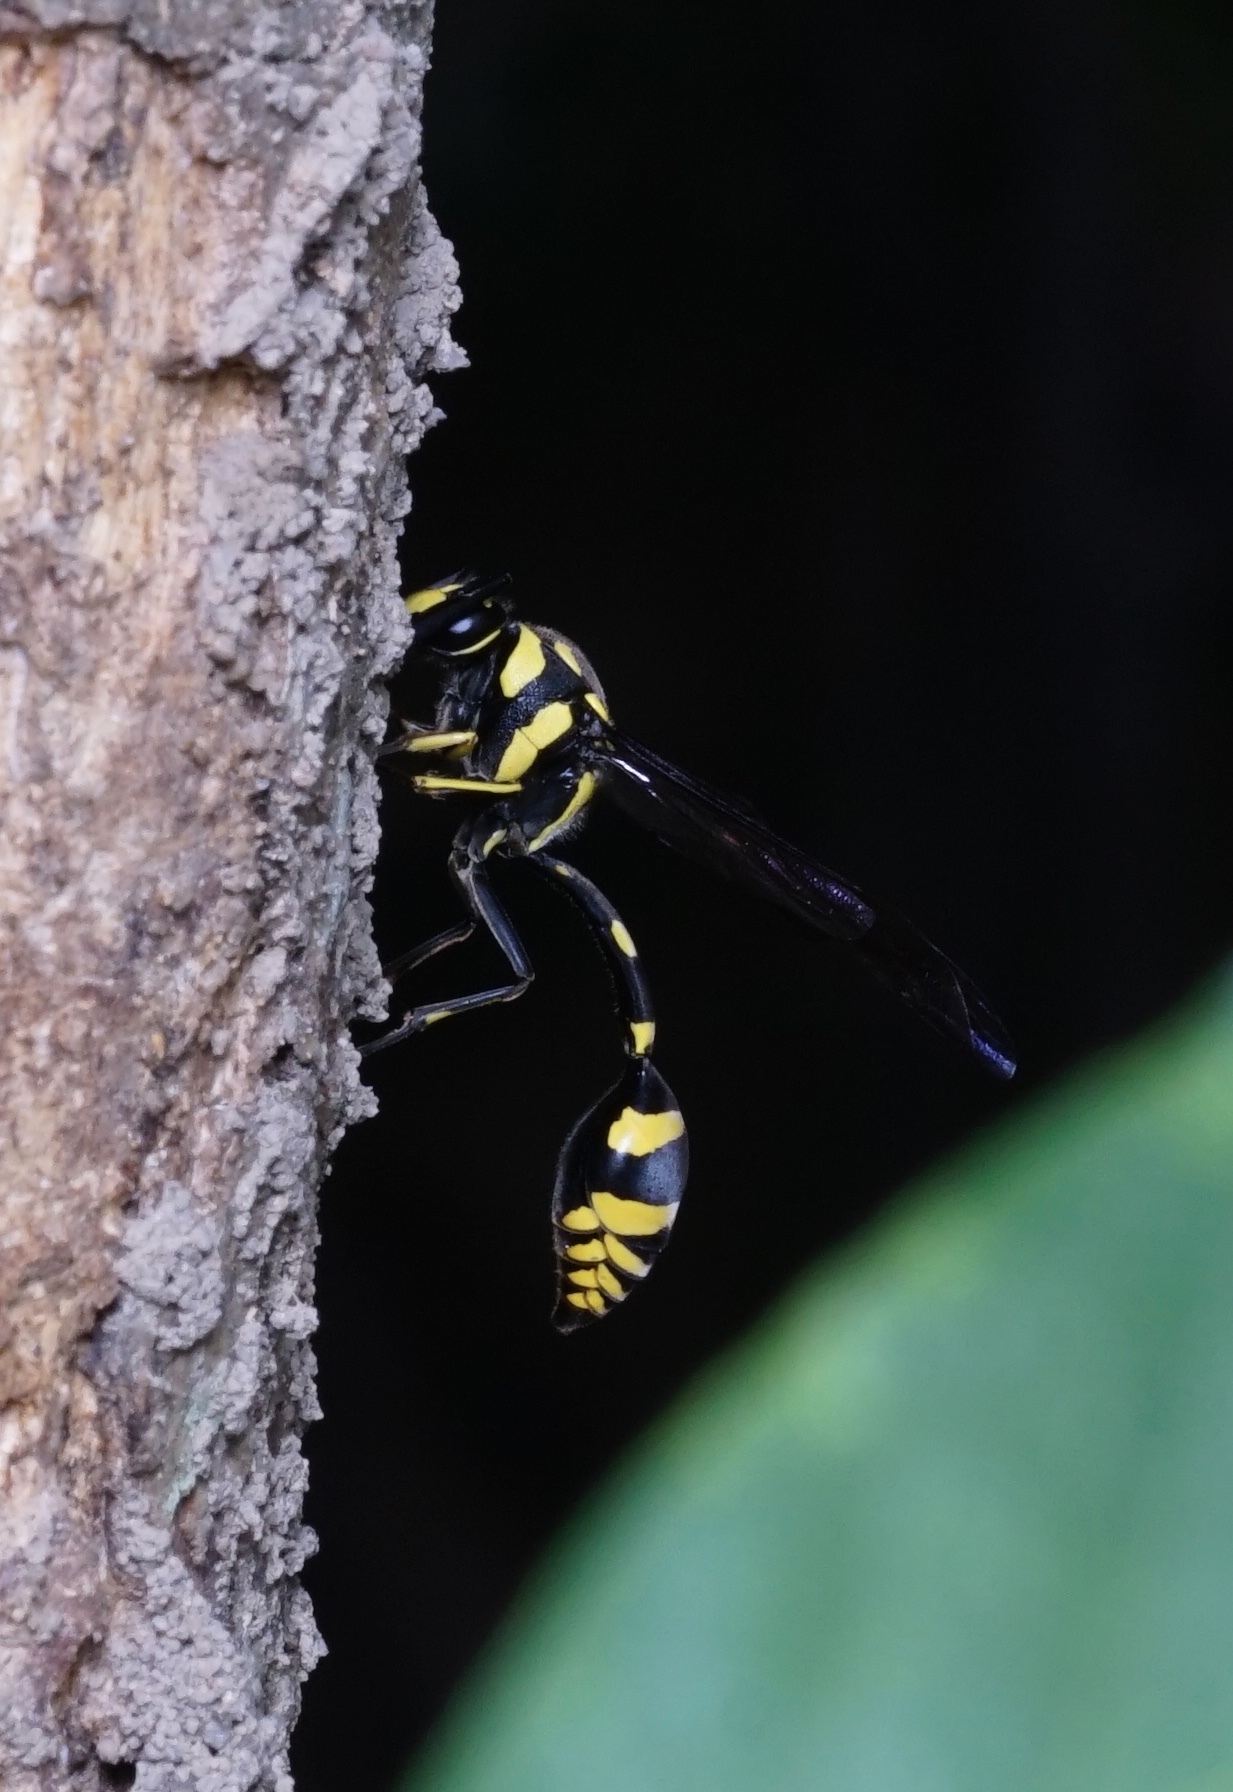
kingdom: Animalia
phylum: Arthropoda
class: Insecta
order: Hymenoptera
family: Eumenidae
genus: Phimenes
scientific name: Phimenes flavopictus
